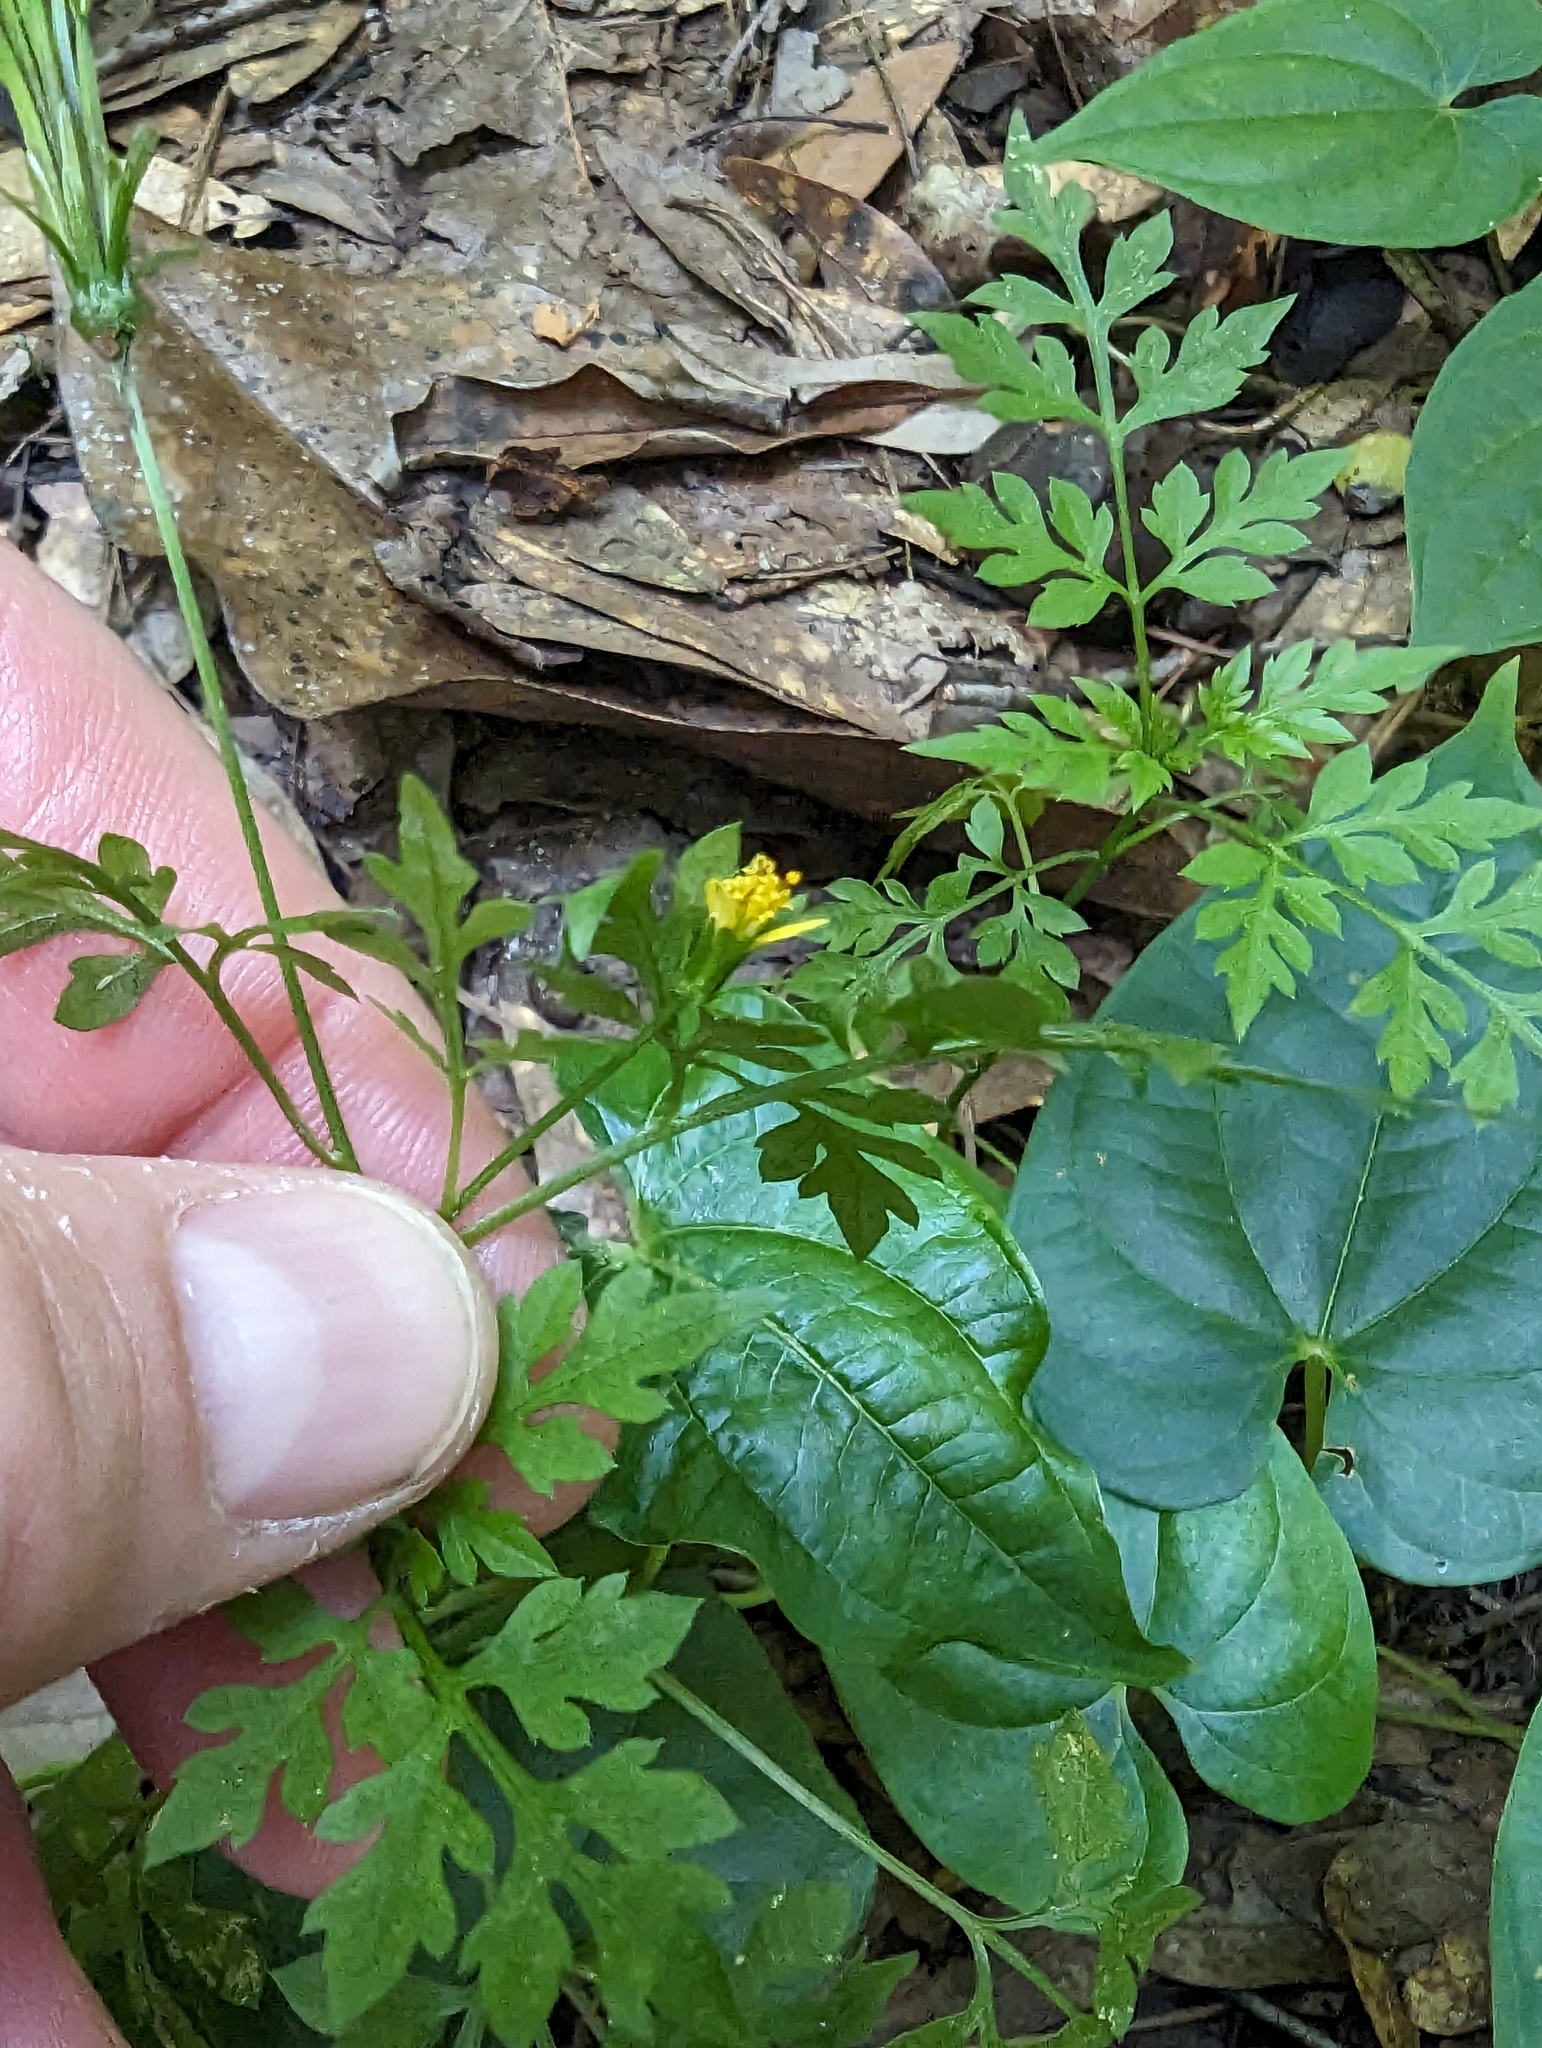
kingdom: Plantae
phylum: Tracheophyta
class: Magnoliopsida
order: Asterales
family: Asteraceae
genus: Bidens
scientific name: Bidens bipinnata
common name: Spanish-needles
